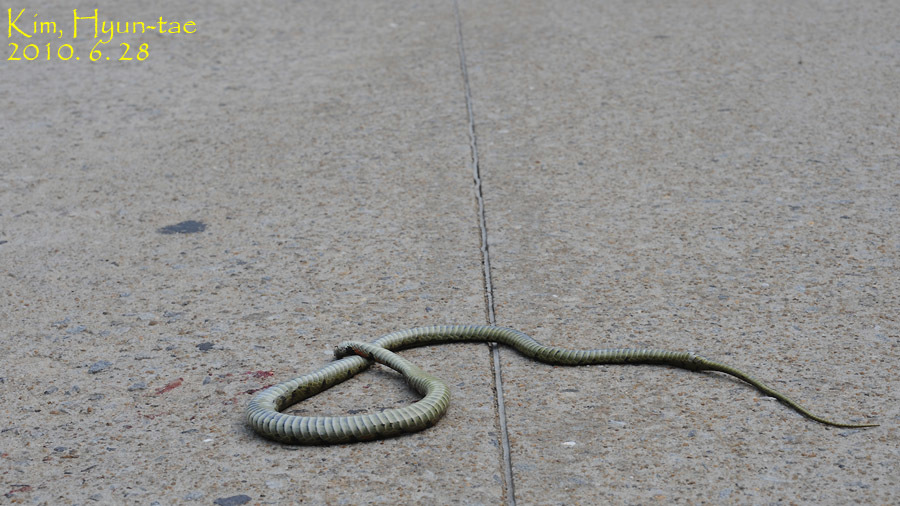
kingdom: Animalia
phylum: Chordata
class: Squamata
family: Colubridae
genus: Rhabdophis
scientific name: Rhabdophis tigrinus
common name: Tiger keelback
